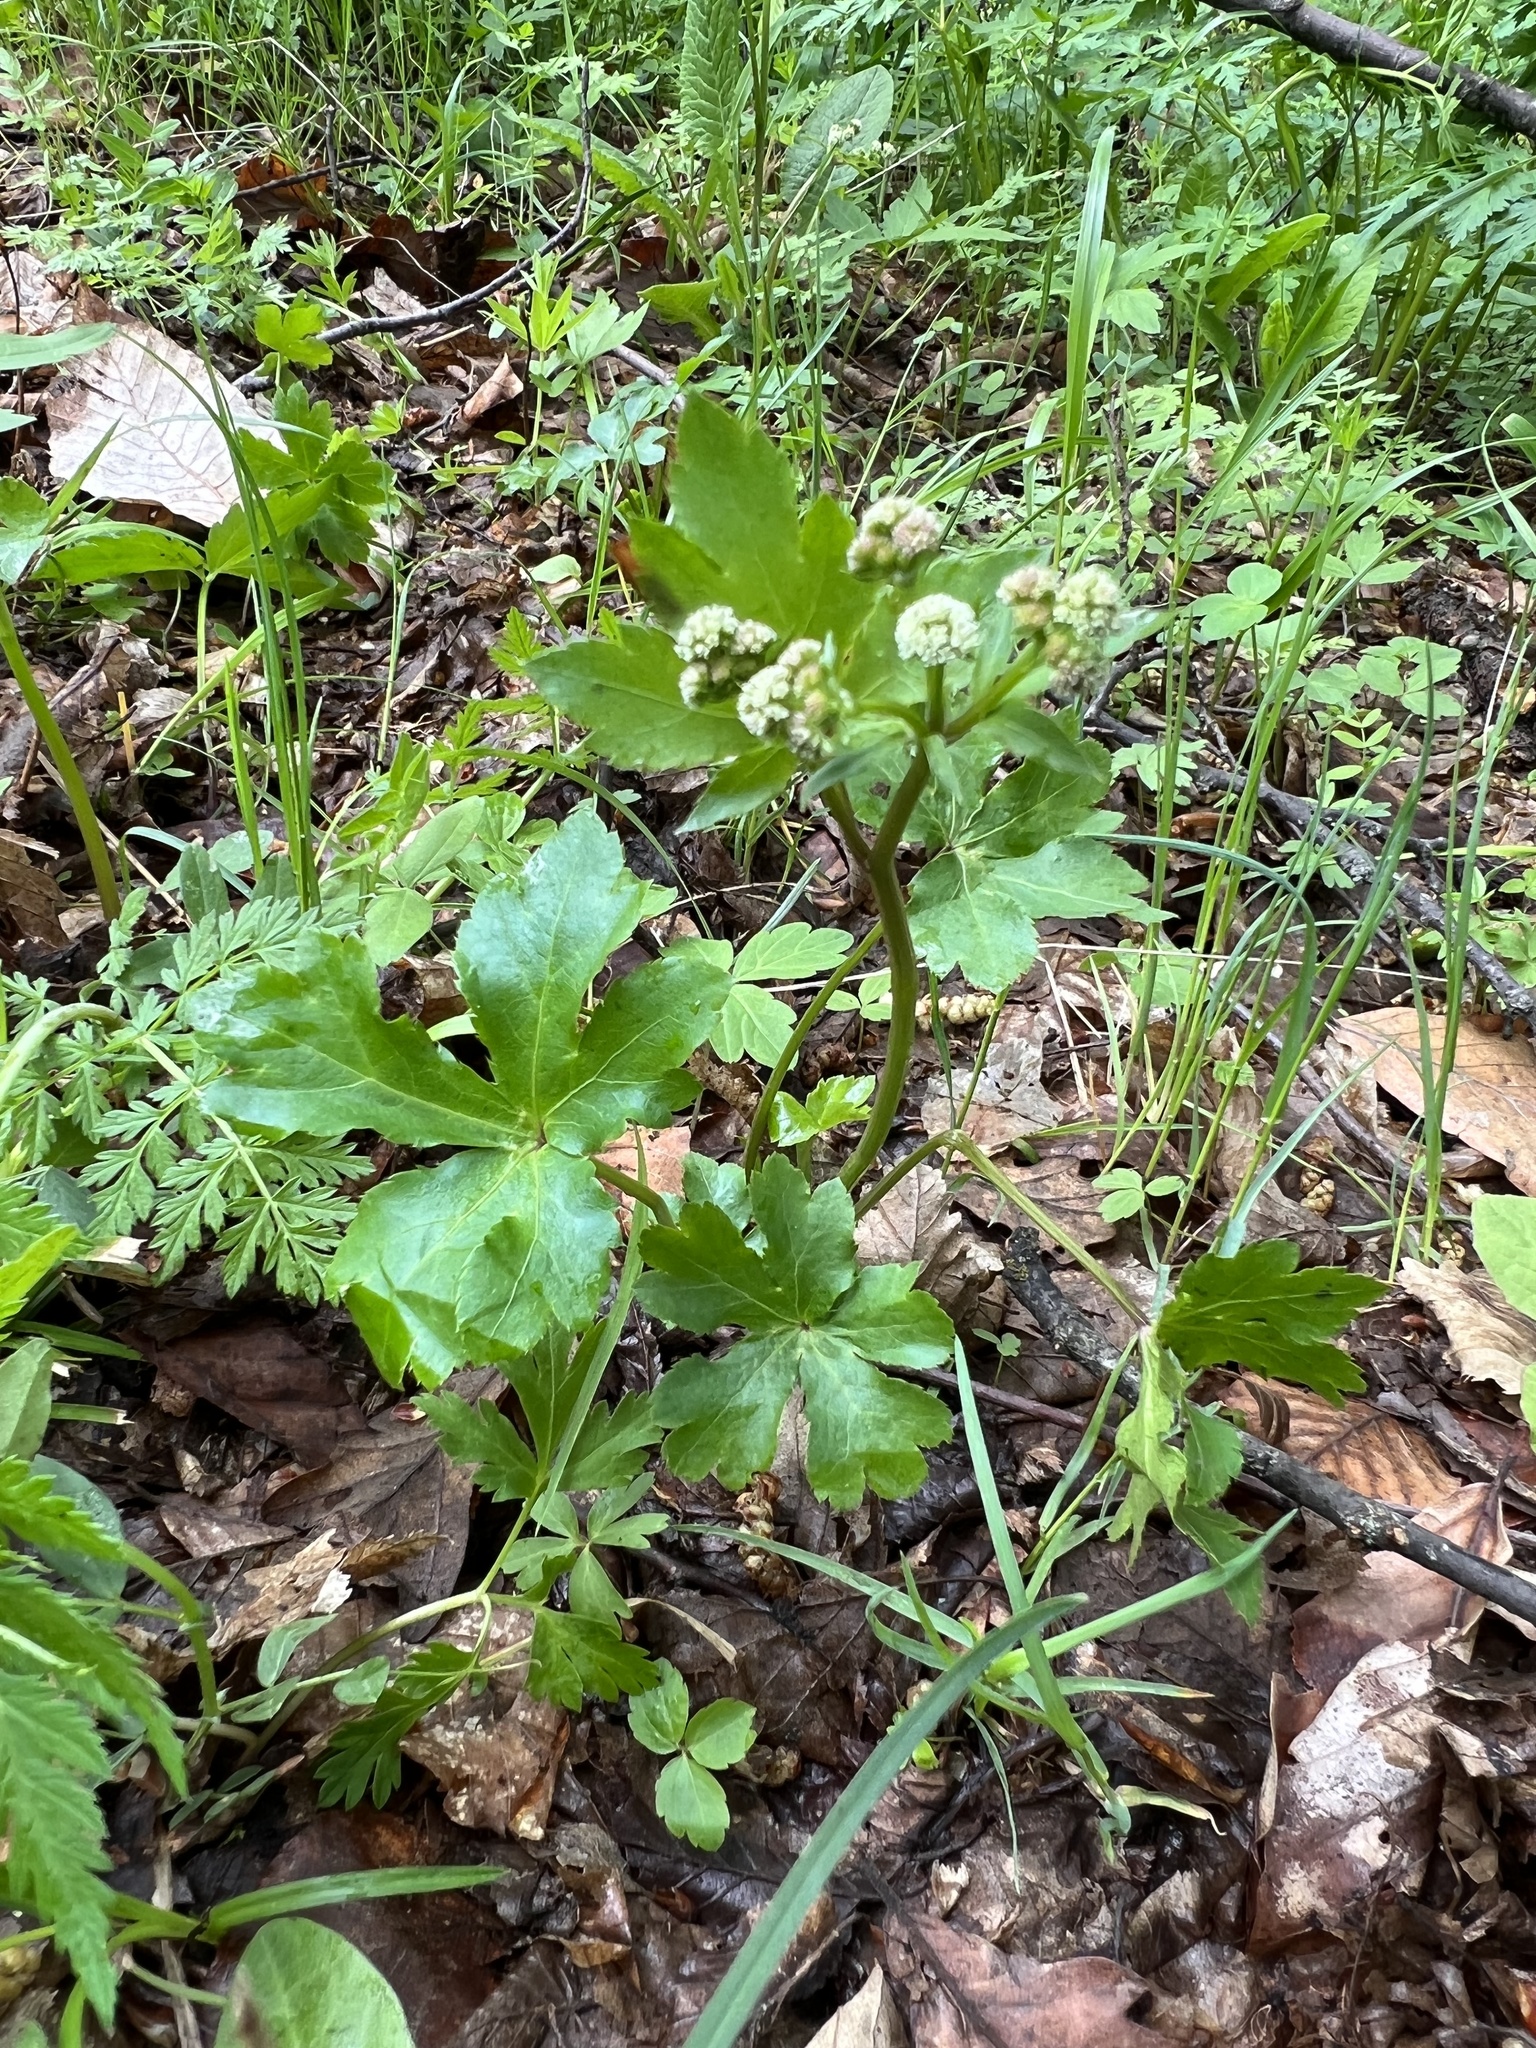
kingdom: Plantae
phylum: Tracheophyta
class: Magnoliopsida
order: Apiales
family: Apiaceae
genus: Sanicula
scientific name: Sanicula europaea
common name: Sanicle
